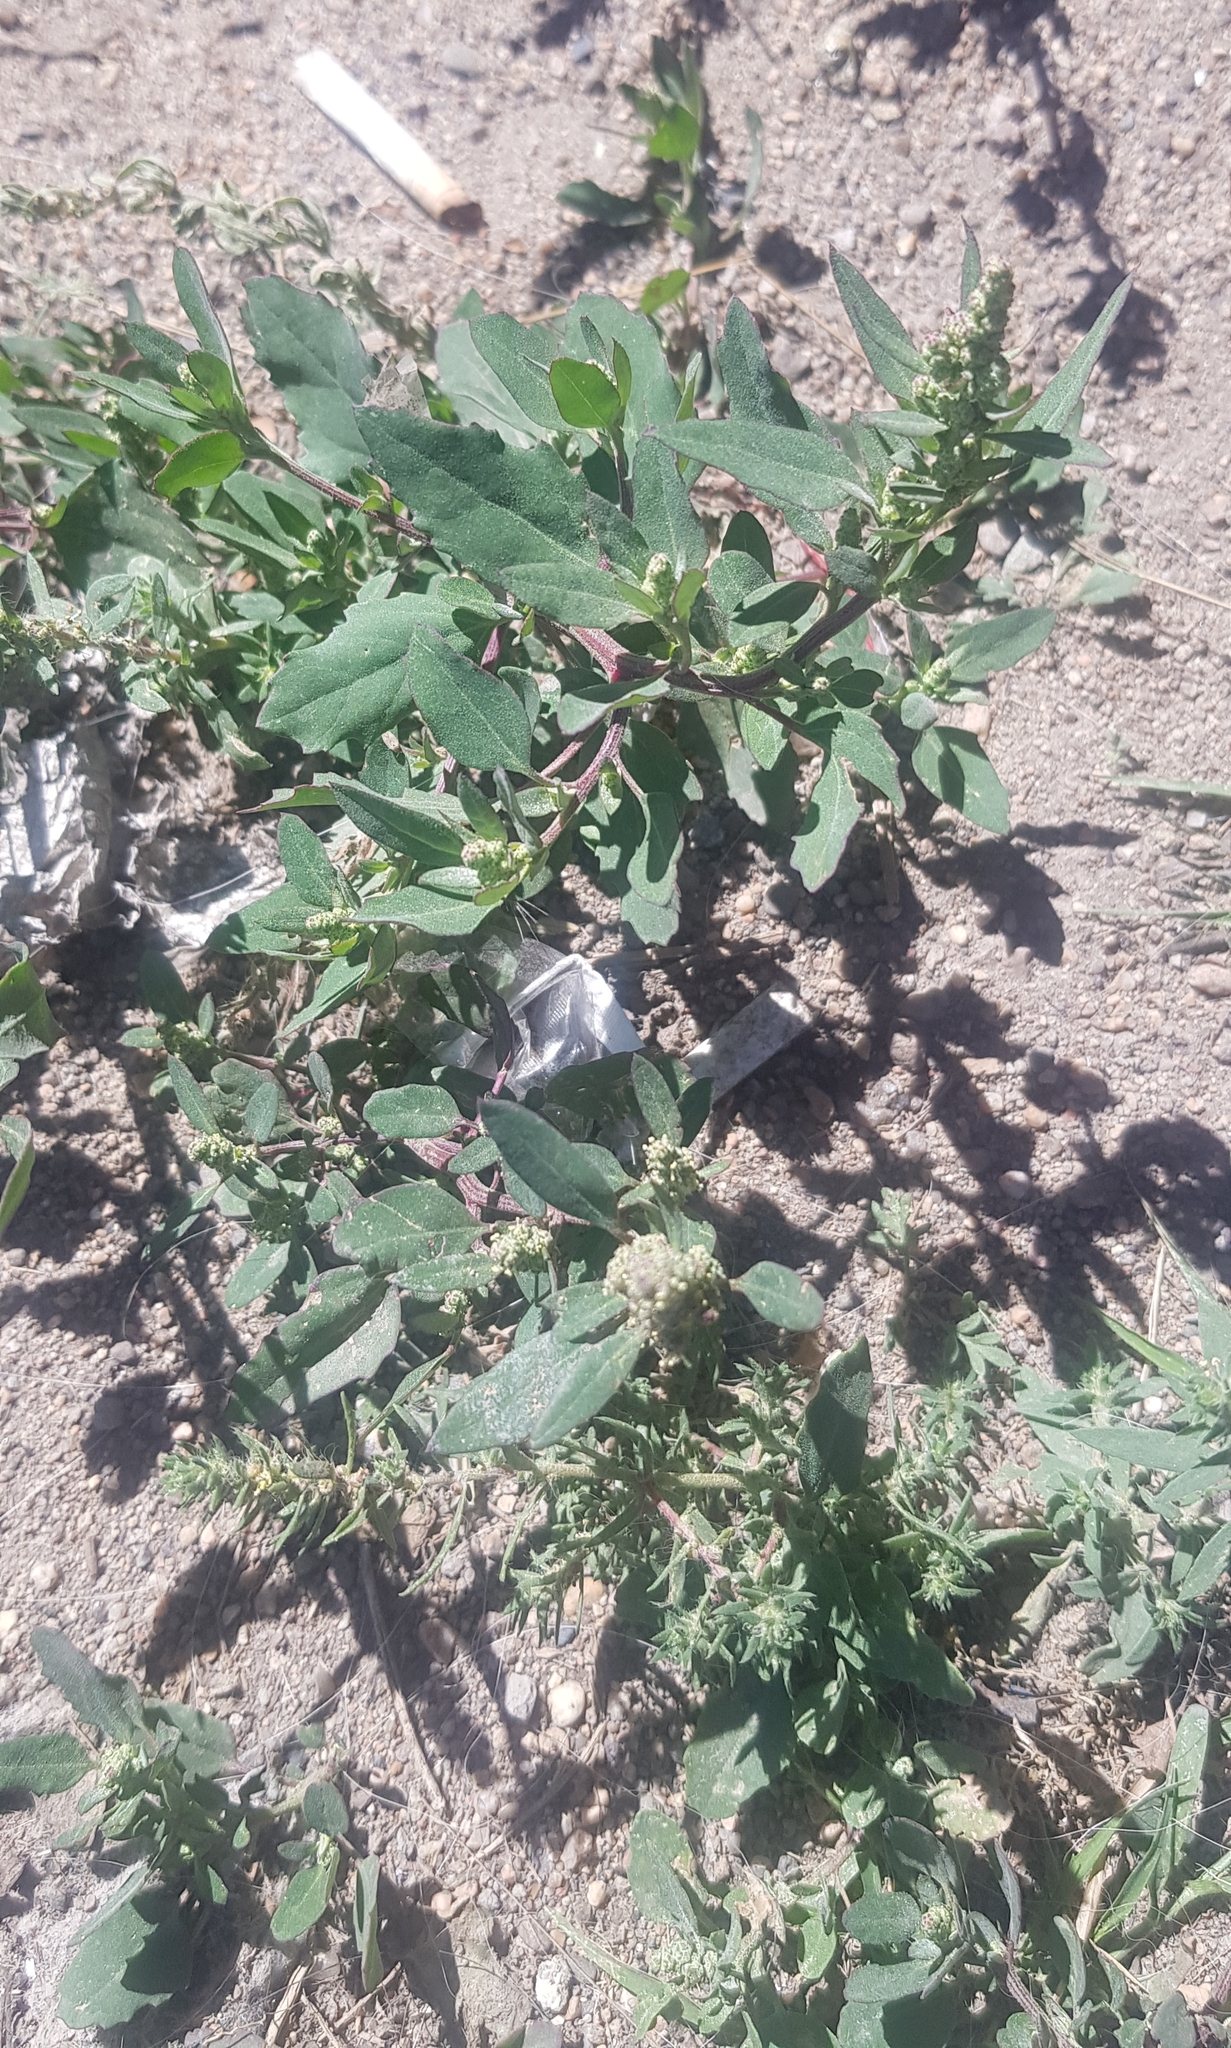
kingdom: Plantae
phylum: Tracheophyta
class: Magnoliopsida
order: Caryophyllales
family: Amaranthaceae
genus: Chenopodium
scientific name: Chenopodium album
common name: Fat-hen
